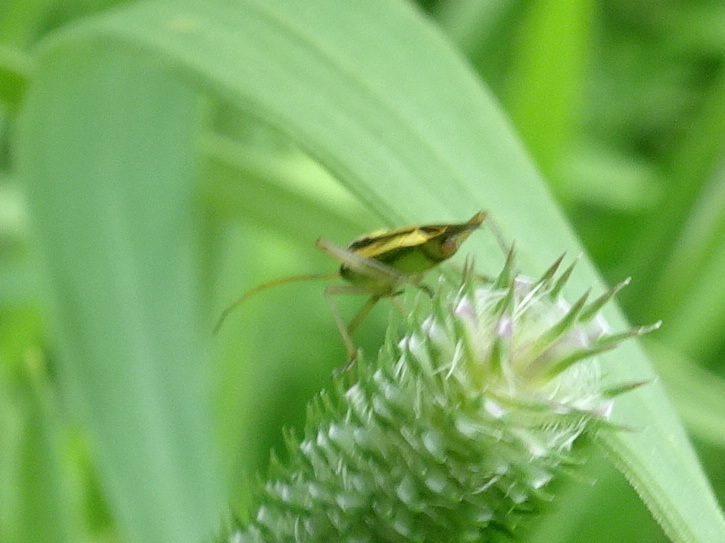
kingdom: Animalia
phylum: Arthropoda
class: Insecta
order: Hemiptera
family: Miridae
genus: Stenotus
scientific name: Stenotus binotatus
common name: Plant bug
